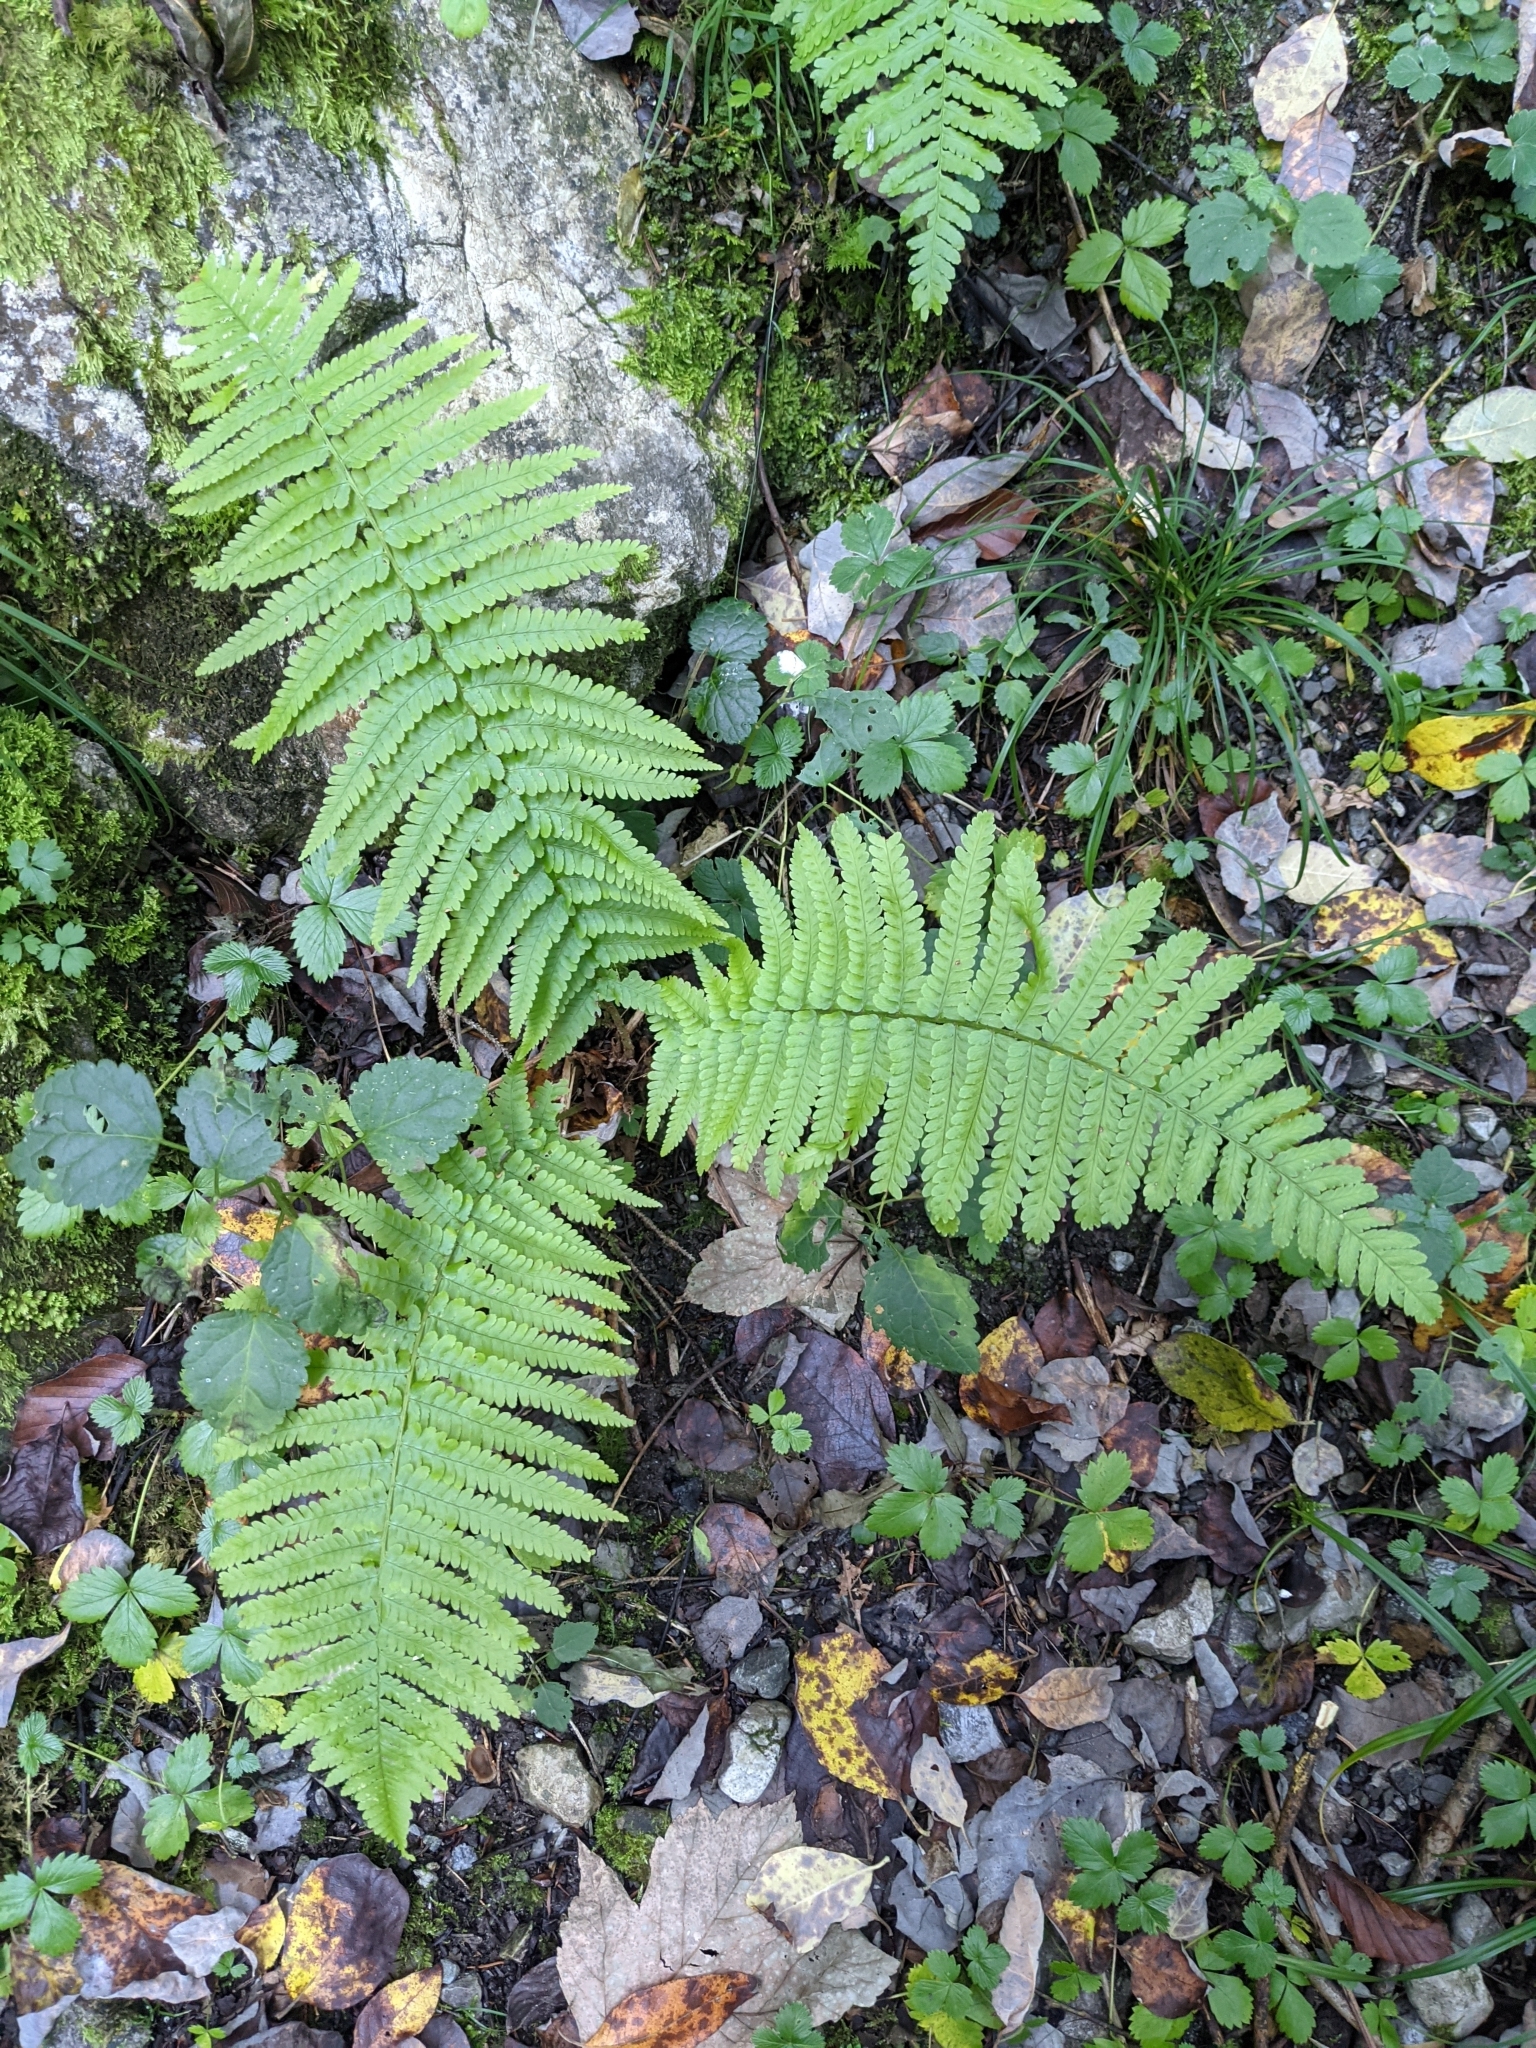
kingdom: Plantae
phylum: Tracheophyta
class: Polypodiopsida
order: Polypodiales
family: Dryopteridaceae
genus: Dryopteris
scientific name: Dryopteris filix-mas
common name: Male fern
